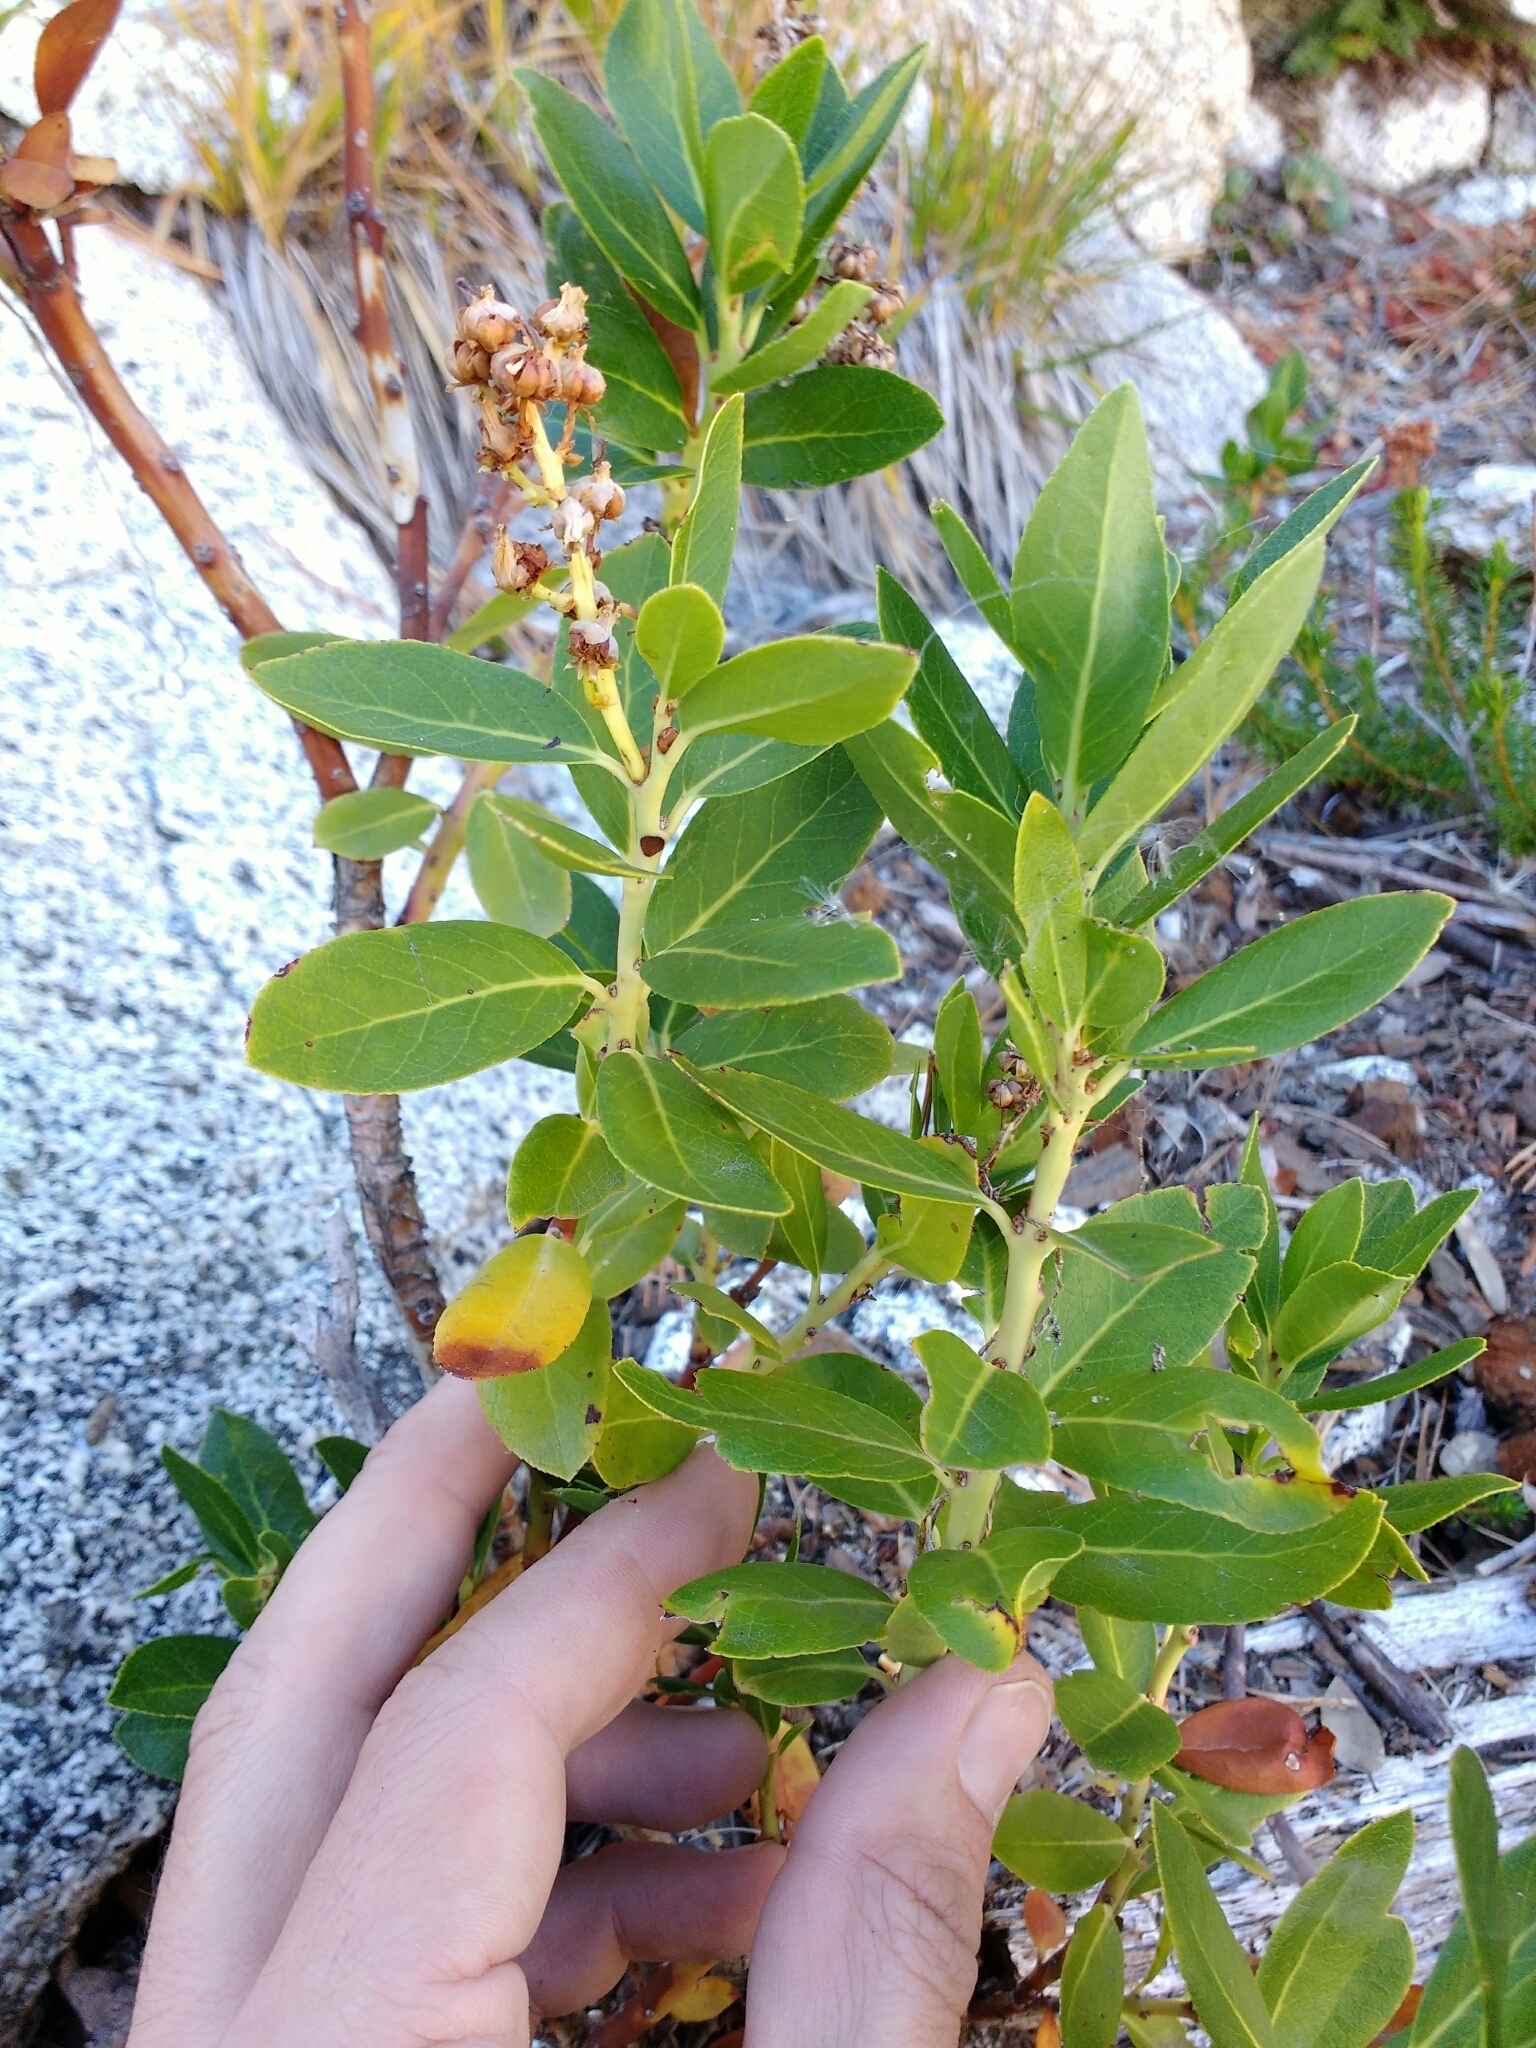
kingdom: Plantae
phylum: Tracheophyta
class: Magnoliopsida
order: Ericales
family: Ericaceae
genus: Leucothoe
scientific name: Leucothoe davisiae
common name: Sierra-laurel
